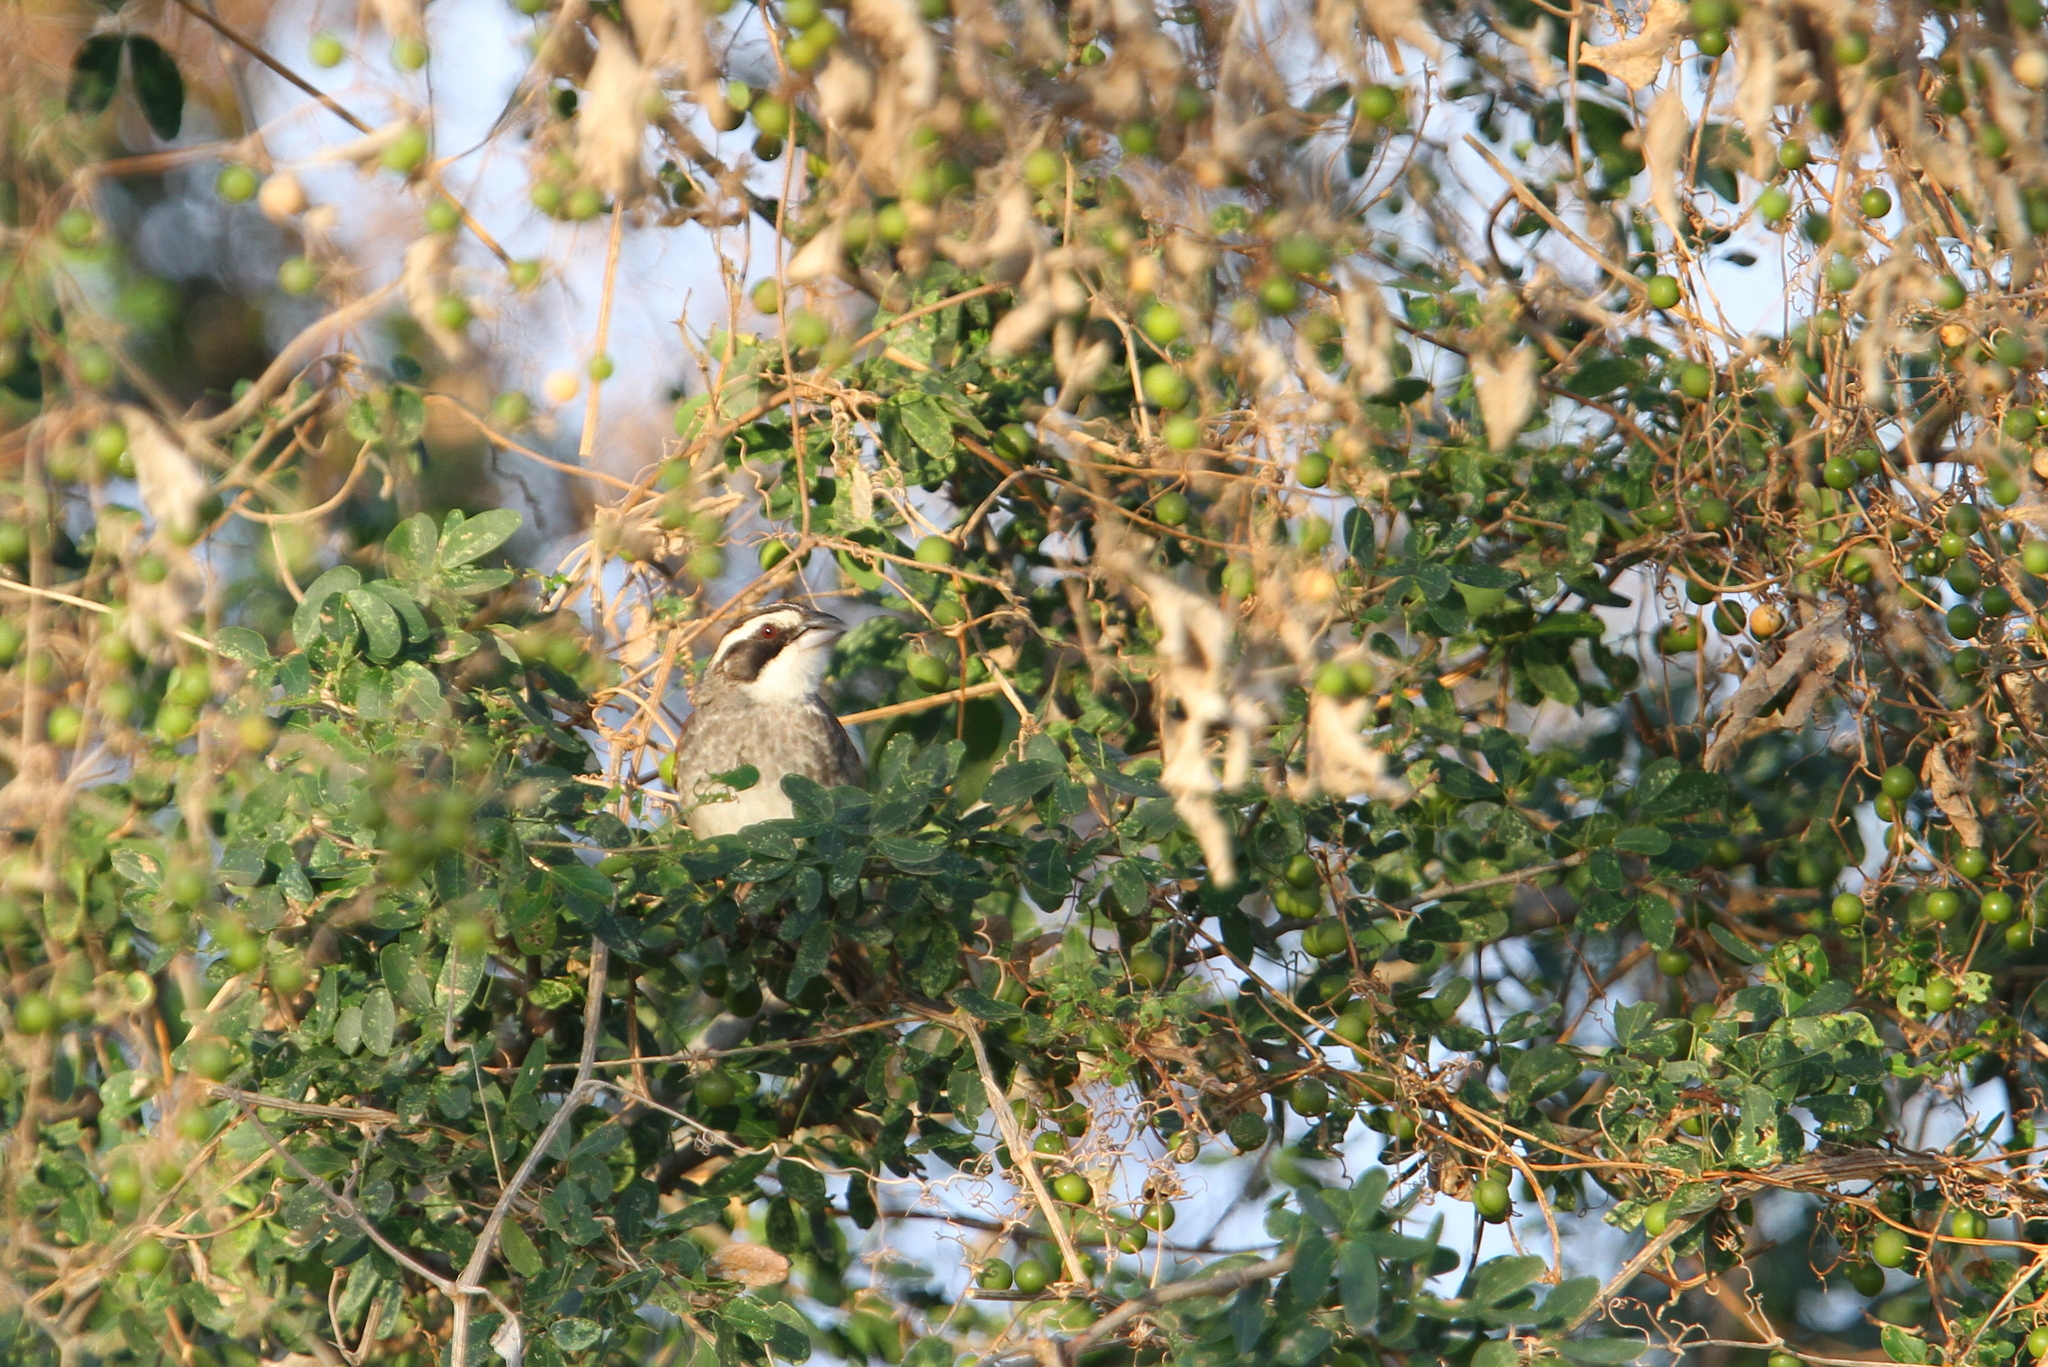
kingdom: Animalia
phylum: Chordata
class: Aves
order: Passeriformes
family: Passerellidae
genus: Peucaea
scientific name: Peucaea ruficauda
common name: Stripe-headed sparrow
